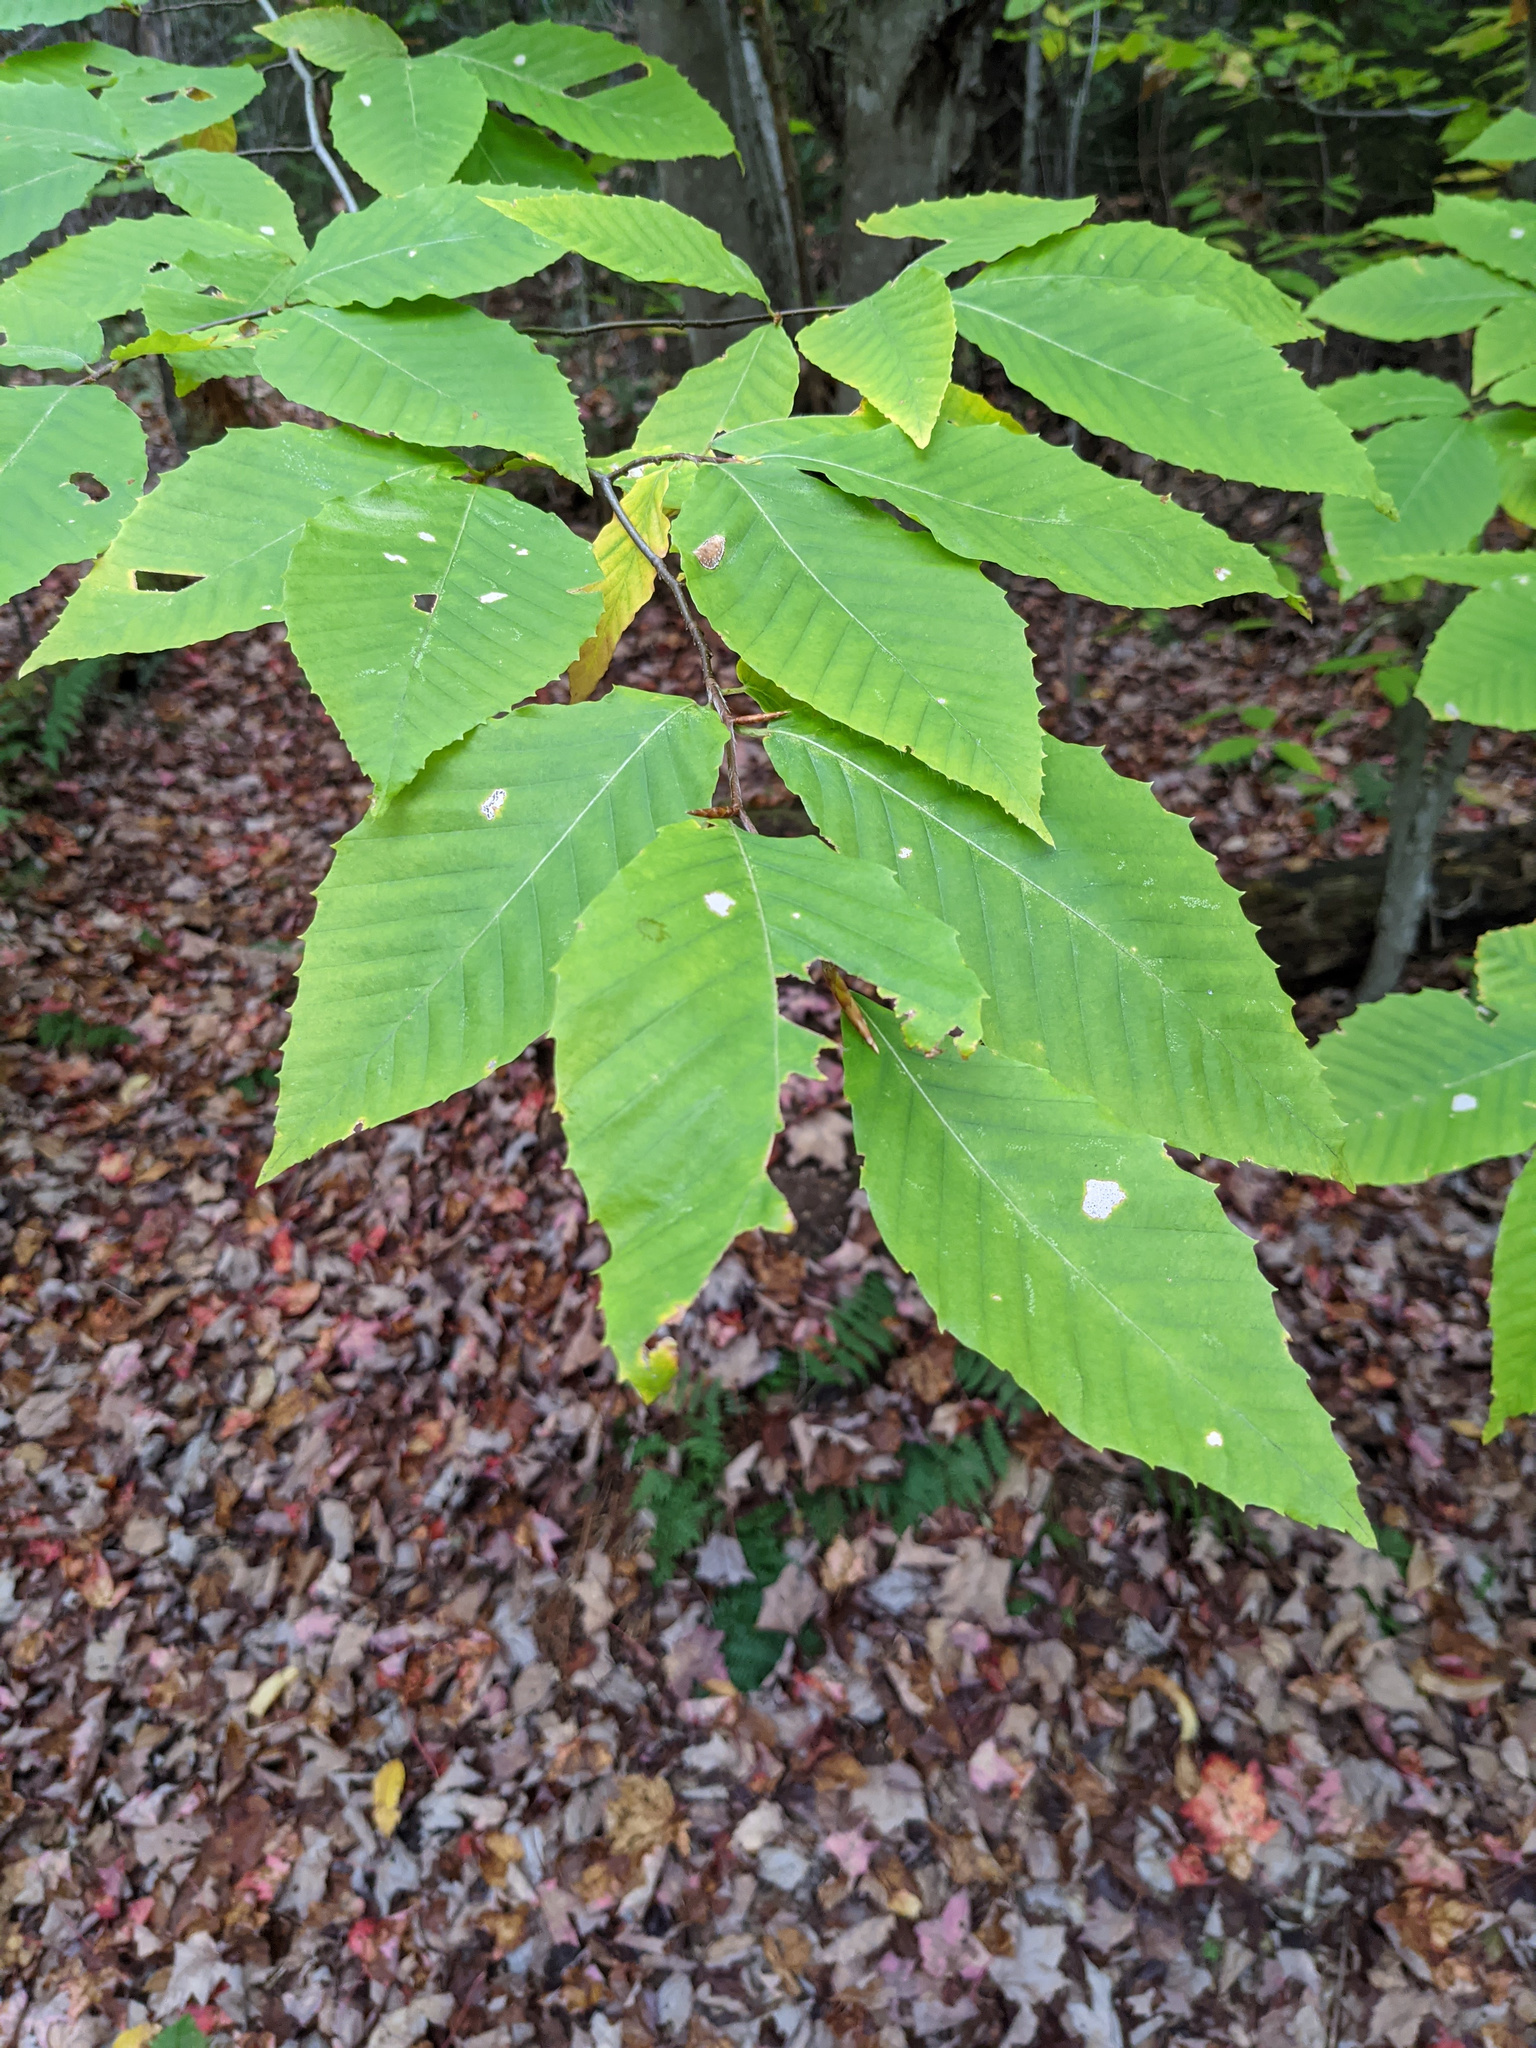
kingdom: Plantae
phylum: Tracheophyta
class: Magnoliopsida
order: Fagales
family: Fagaceae
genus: Fagus
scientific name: Fagus grandifolia
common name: American beech
